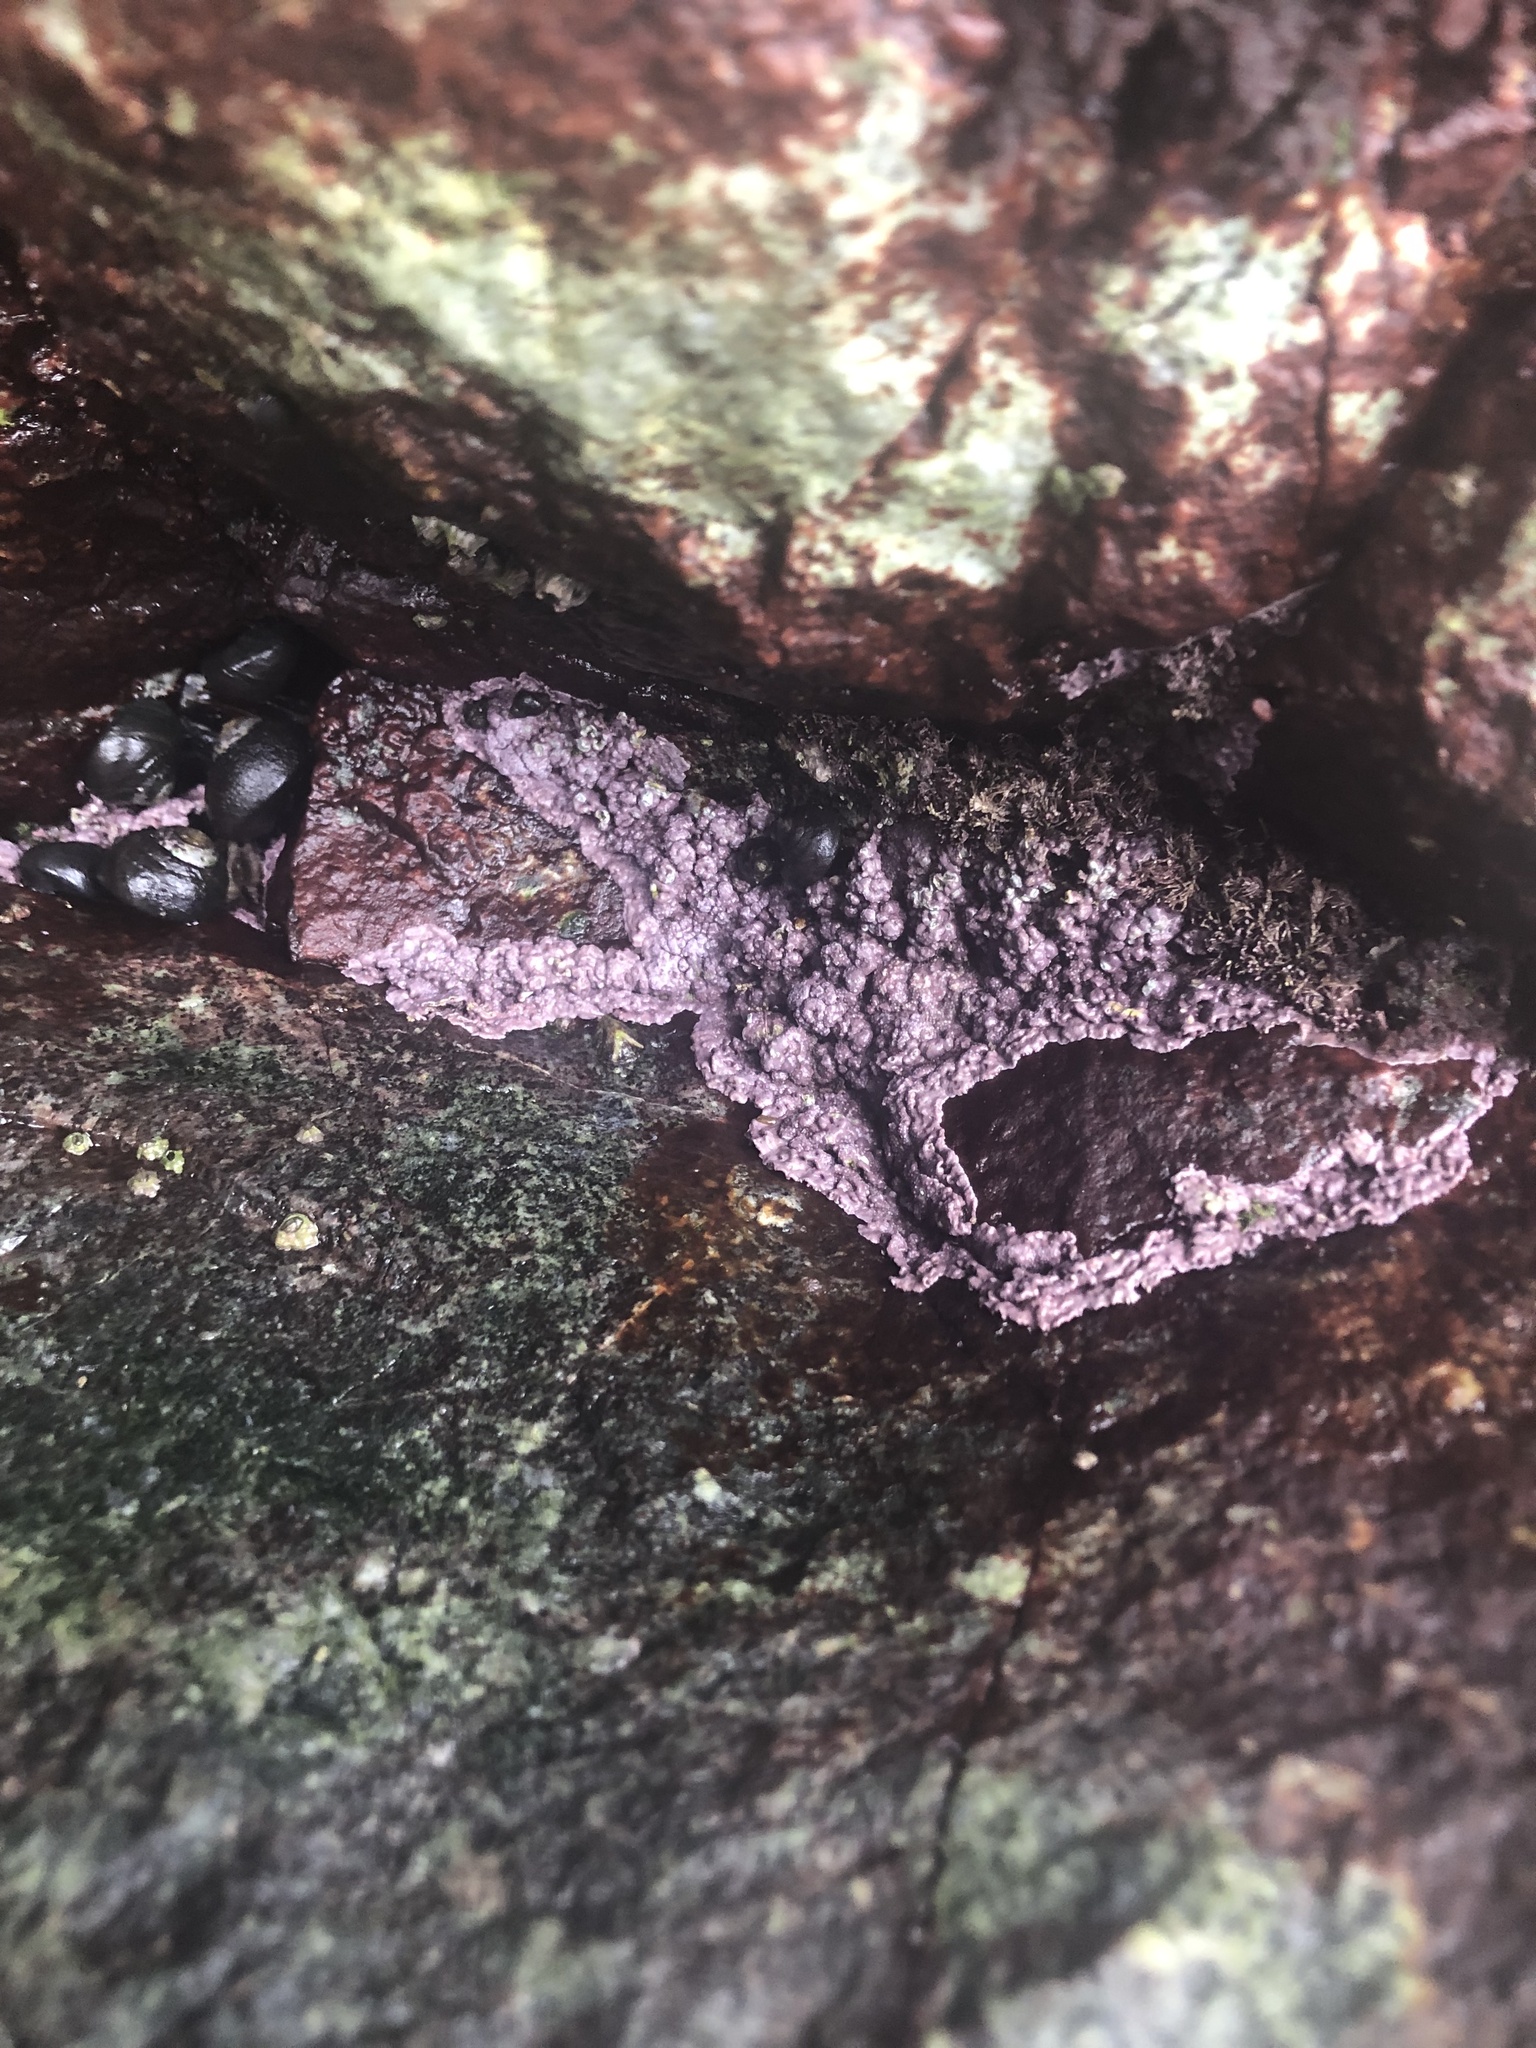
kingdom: Plantae
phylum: Rhodophyta
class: Florideophyceae
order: Corallinales
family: Corallinaceae
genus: Chamberlainium
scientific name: Chamberlainium tumidum
